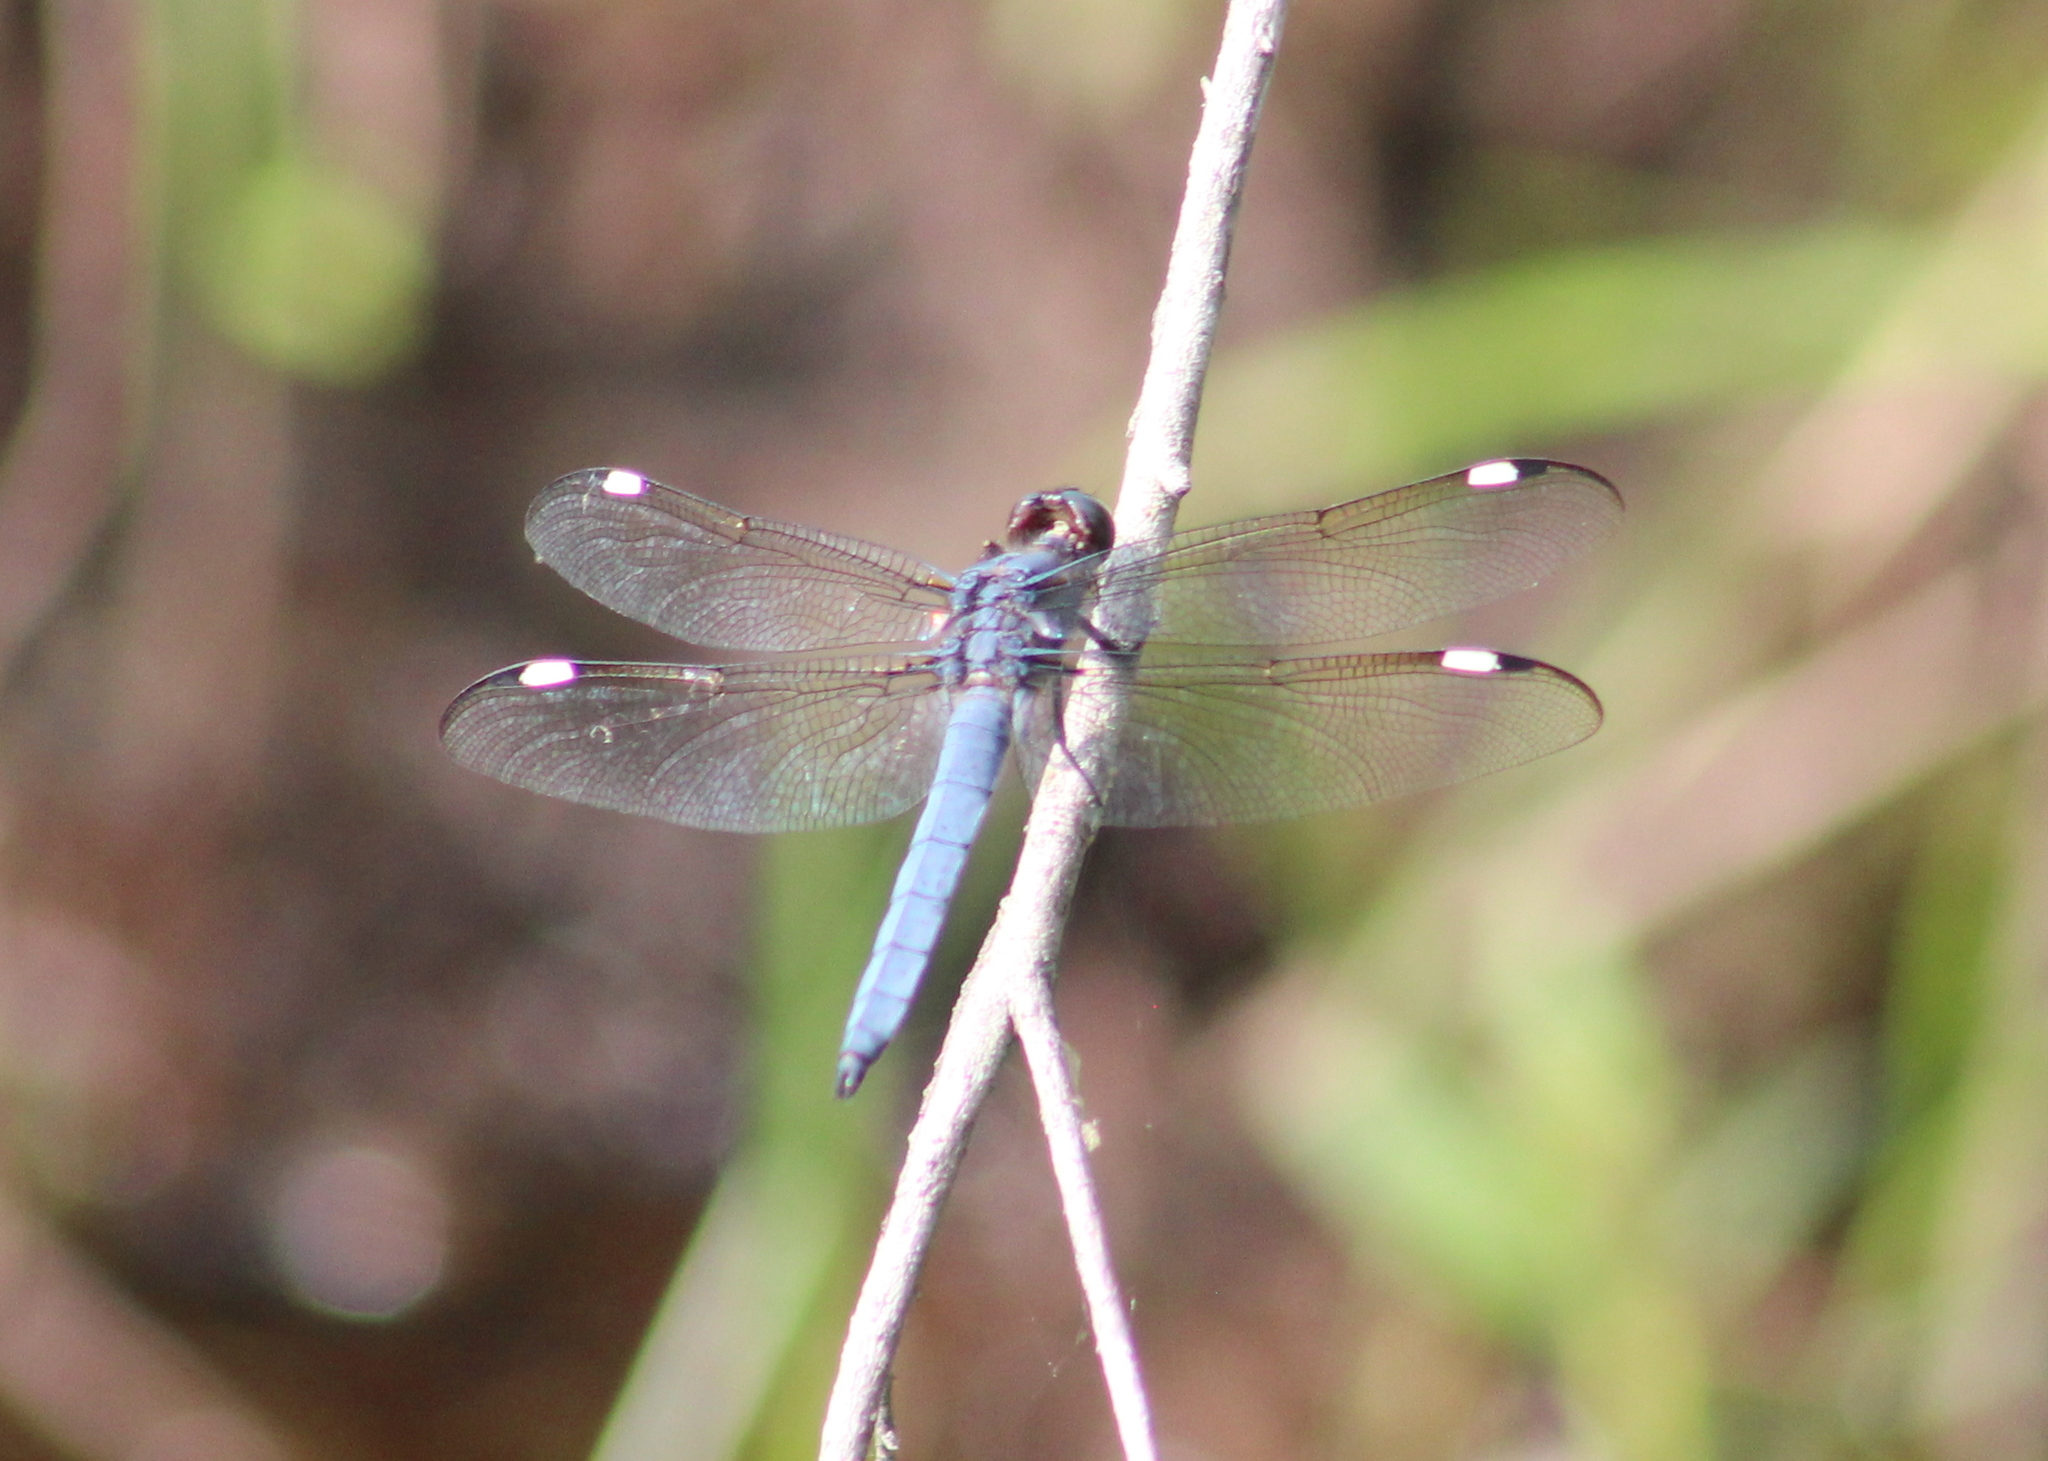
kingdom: Animalia
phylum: Arthropoda
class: Insecta
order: Odonata
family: Libellulidae
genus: Libellula
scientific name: Libellula cyanea
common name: Spangled skimmer
